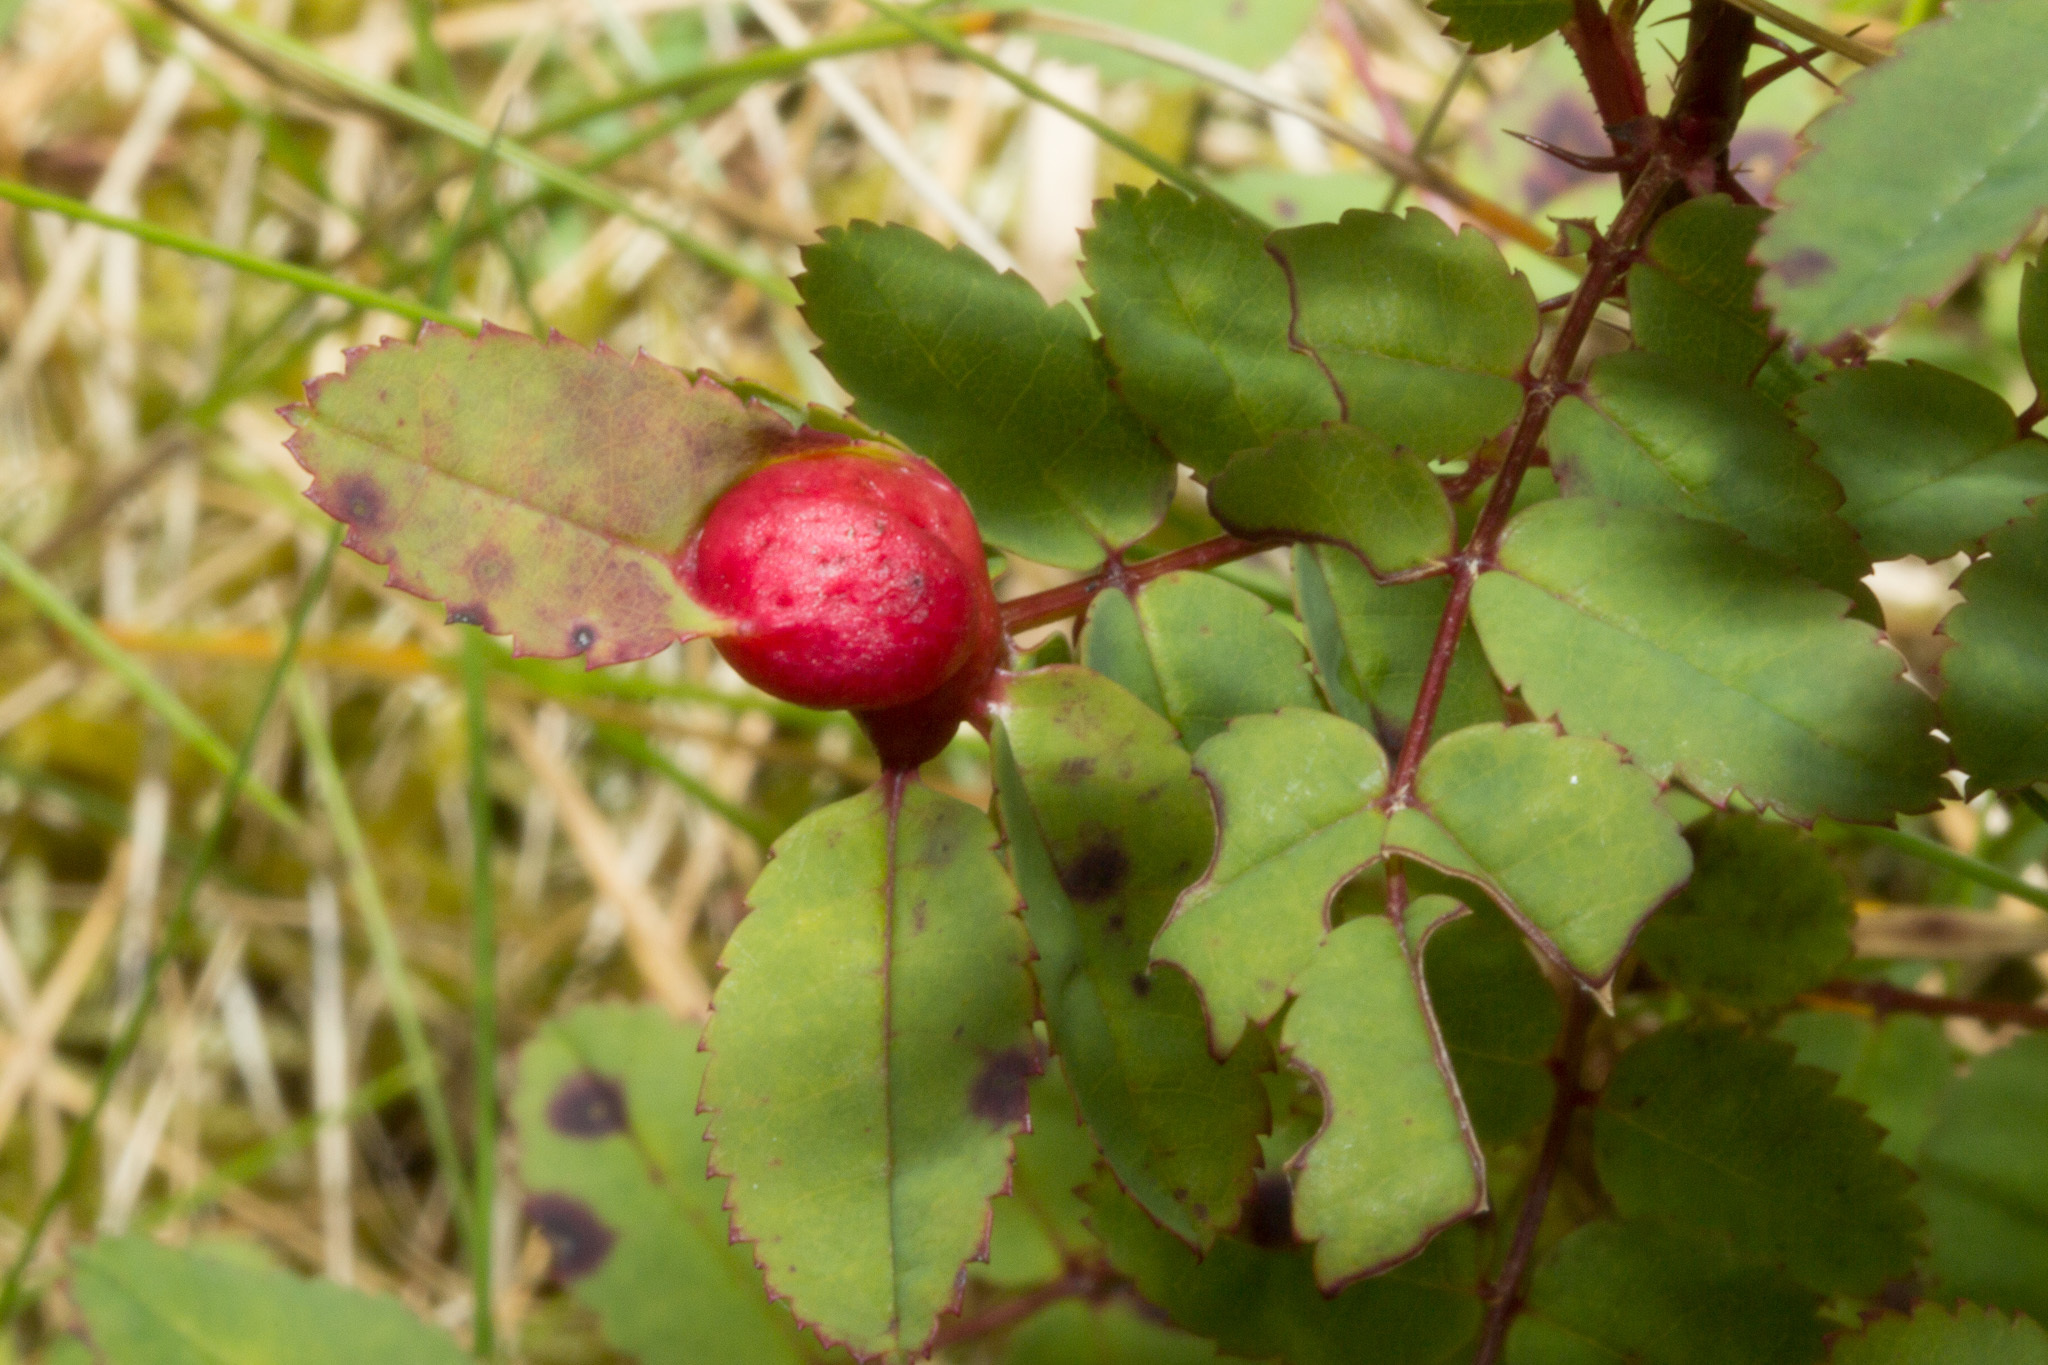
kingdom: Animalia
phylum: Arthropoda
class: Insecta
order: Hymenoptera
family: Cynipidae
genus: Diplolepis
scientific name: Diplolepis spinosissimae
